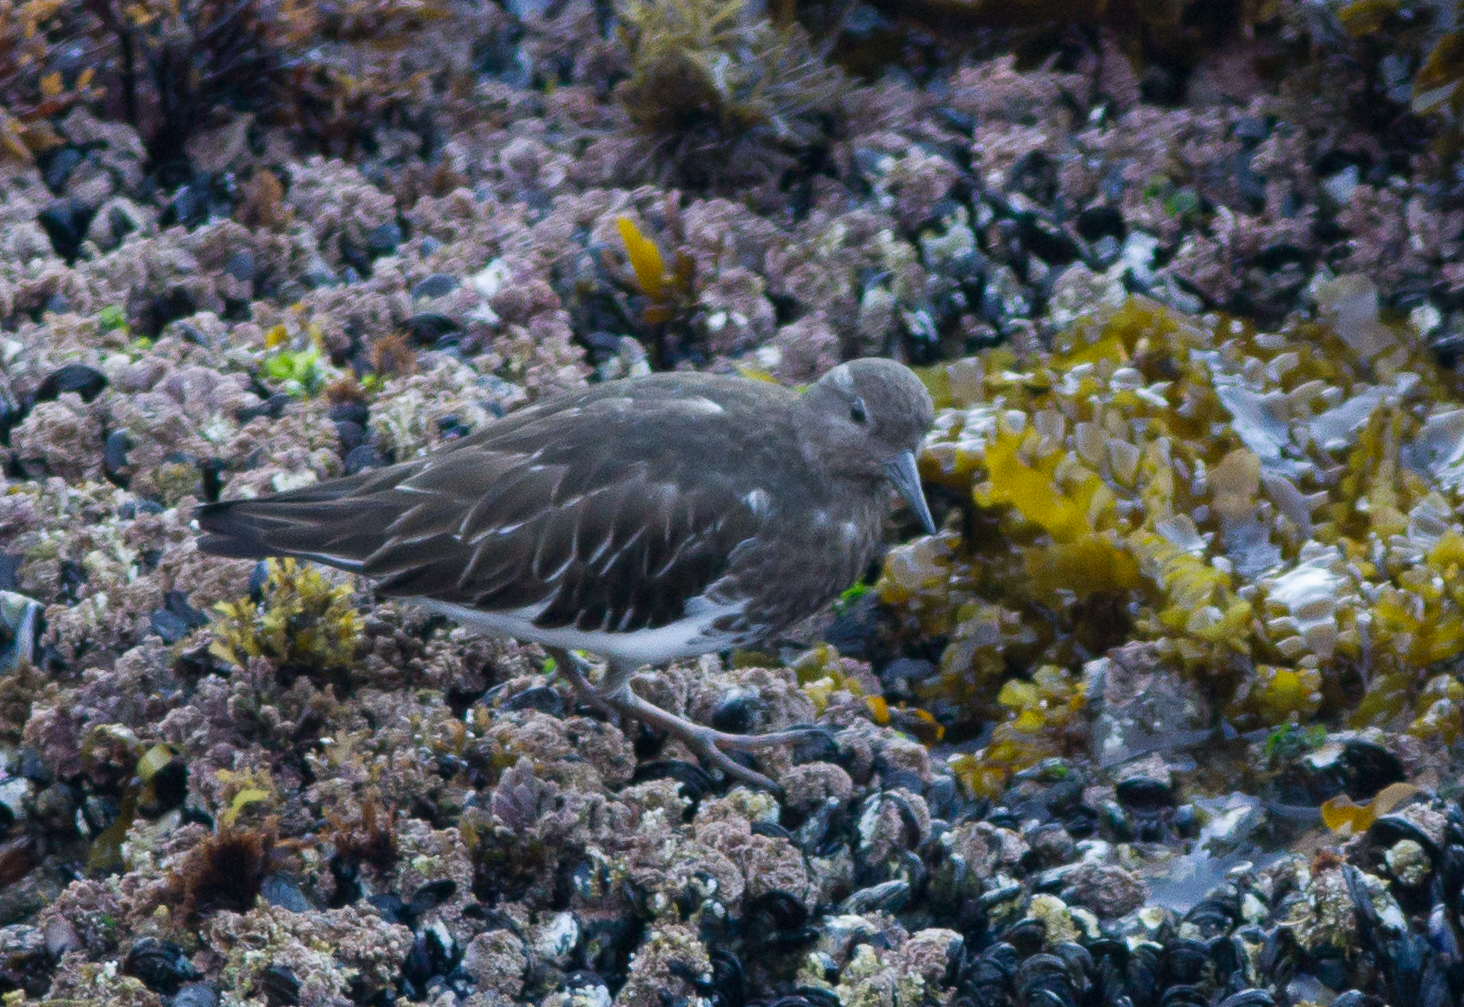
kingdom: Animalia
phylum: Chordata
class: Aves
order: Charadriiformes
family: Scolopacidae
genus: Arenaria
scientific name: Arenaria melanocephala
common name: Black turnstone
